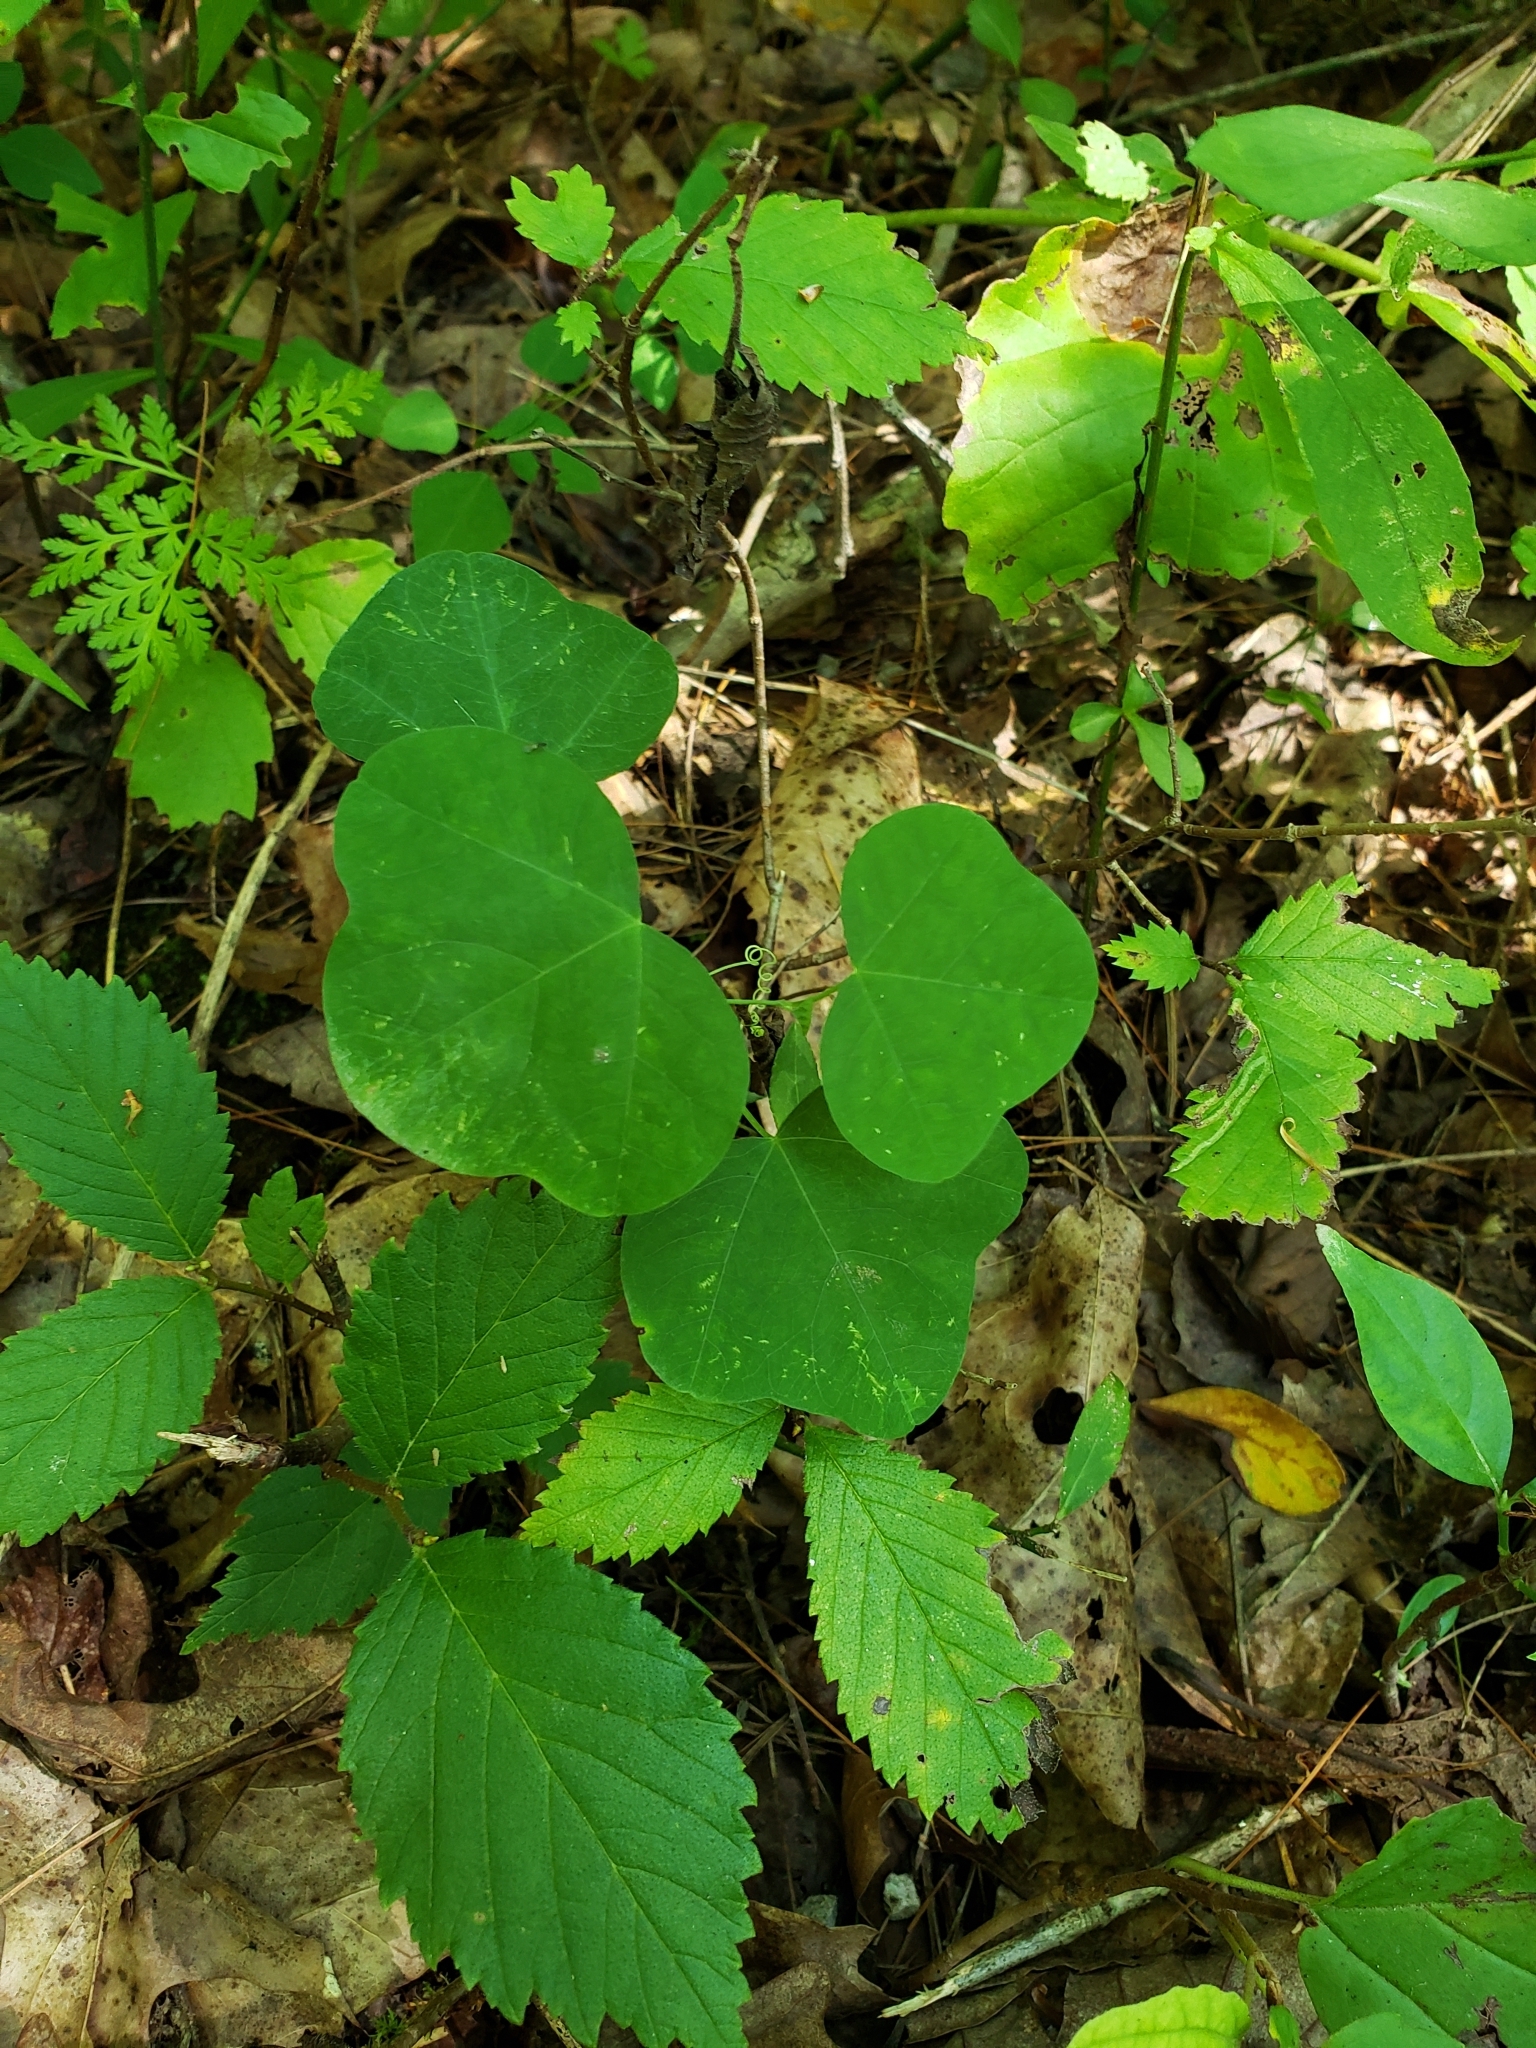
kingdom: Plantae
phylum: Tracheophyta
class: Magnoliopsida
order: Malpighiales
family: Passifloraceae
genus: Passiflora
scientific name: Passiflora lutea
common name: Yellow passionflower
